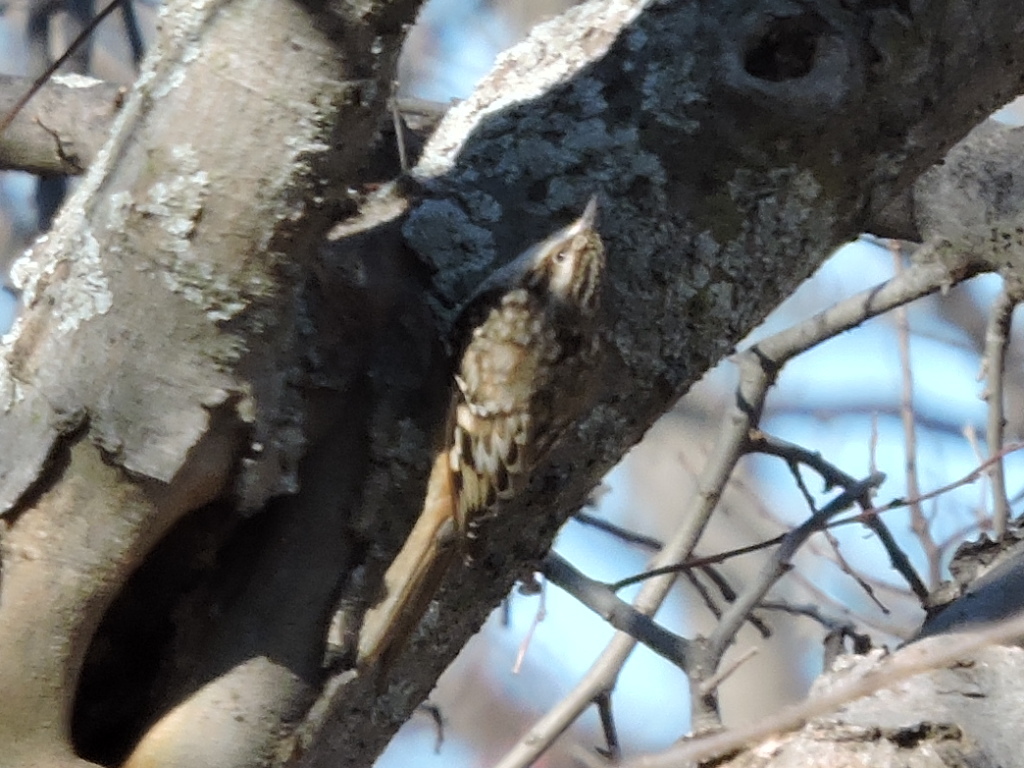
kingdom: Animalia
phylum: Chordata
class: Aves
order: Passeriformes
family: Certhiidae
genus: Certhia
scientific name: Certhia americana
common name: Brown creeper
